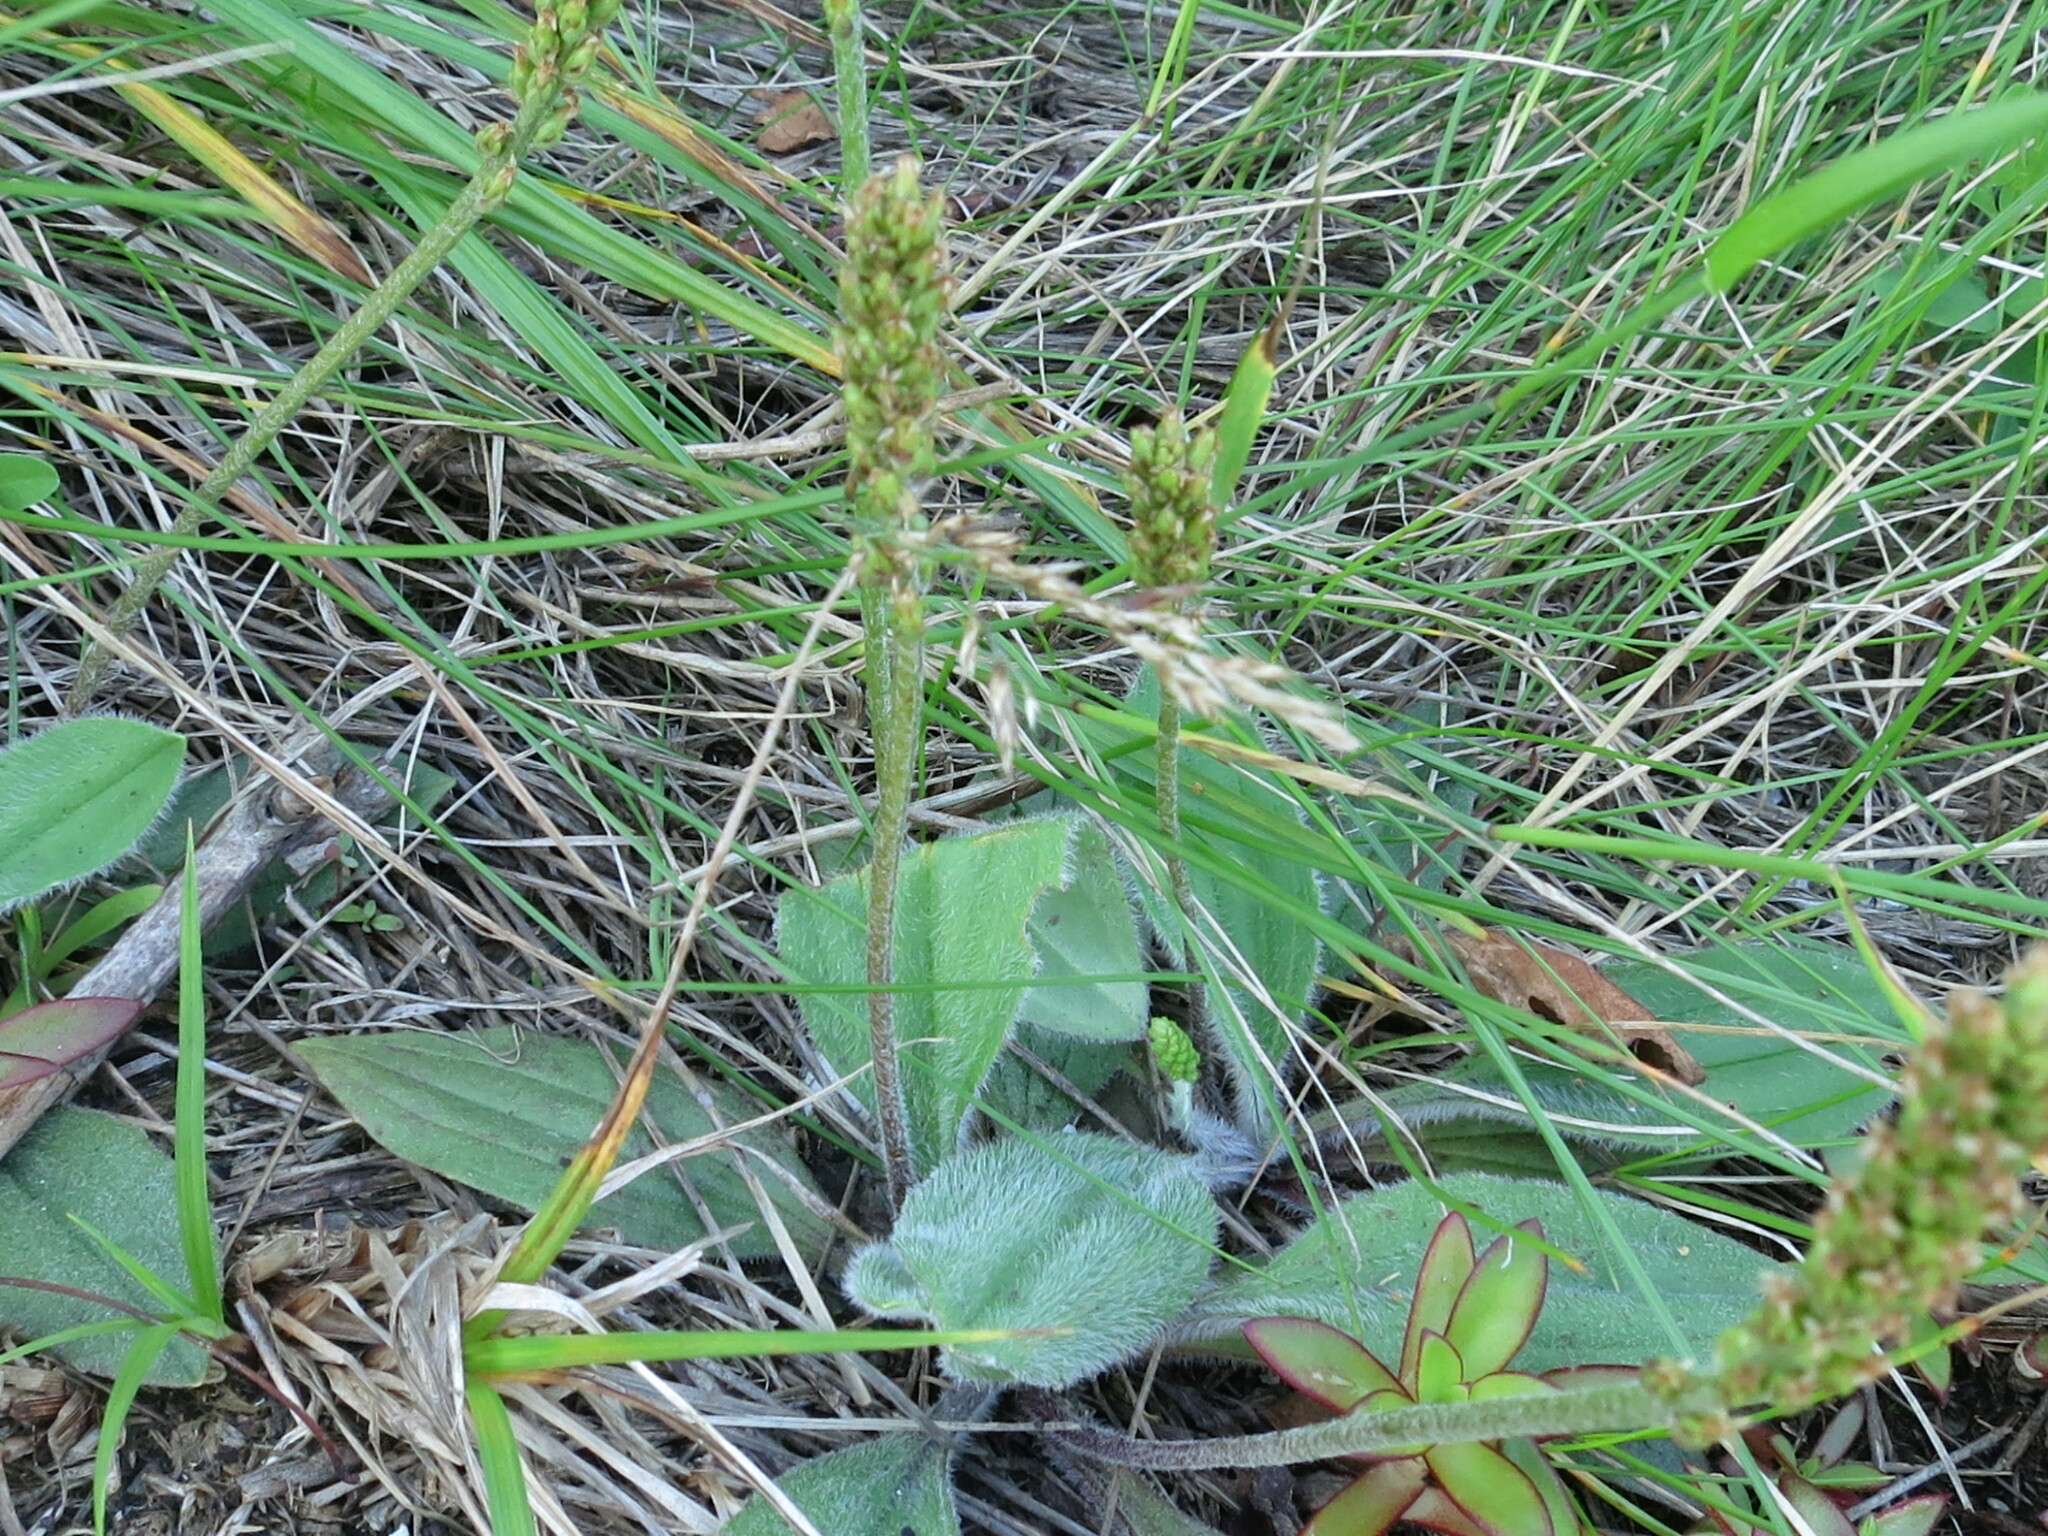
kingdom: Plantae
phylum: Tracheophyta
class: Magnoliopsida
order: Lamiales
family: Plantaginaceae
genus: Plantago
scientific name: Plantago camtschatica
